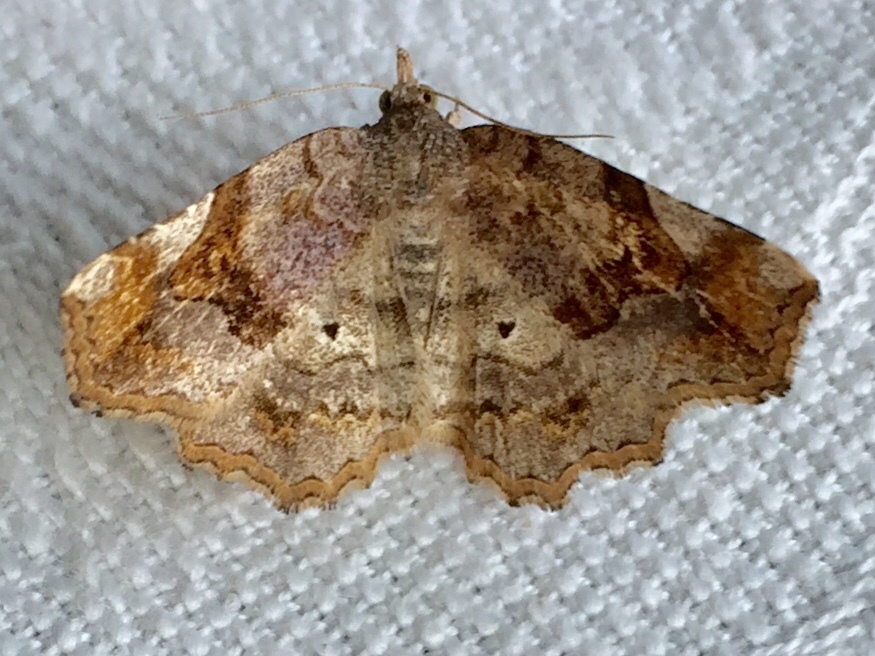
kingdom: Animalia
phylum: Arthropoda
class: Insecta
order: Lepidoptera
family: Erebidae
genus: Pangrapta
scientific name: Pangrapta decoralis
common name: Decorated owlet
